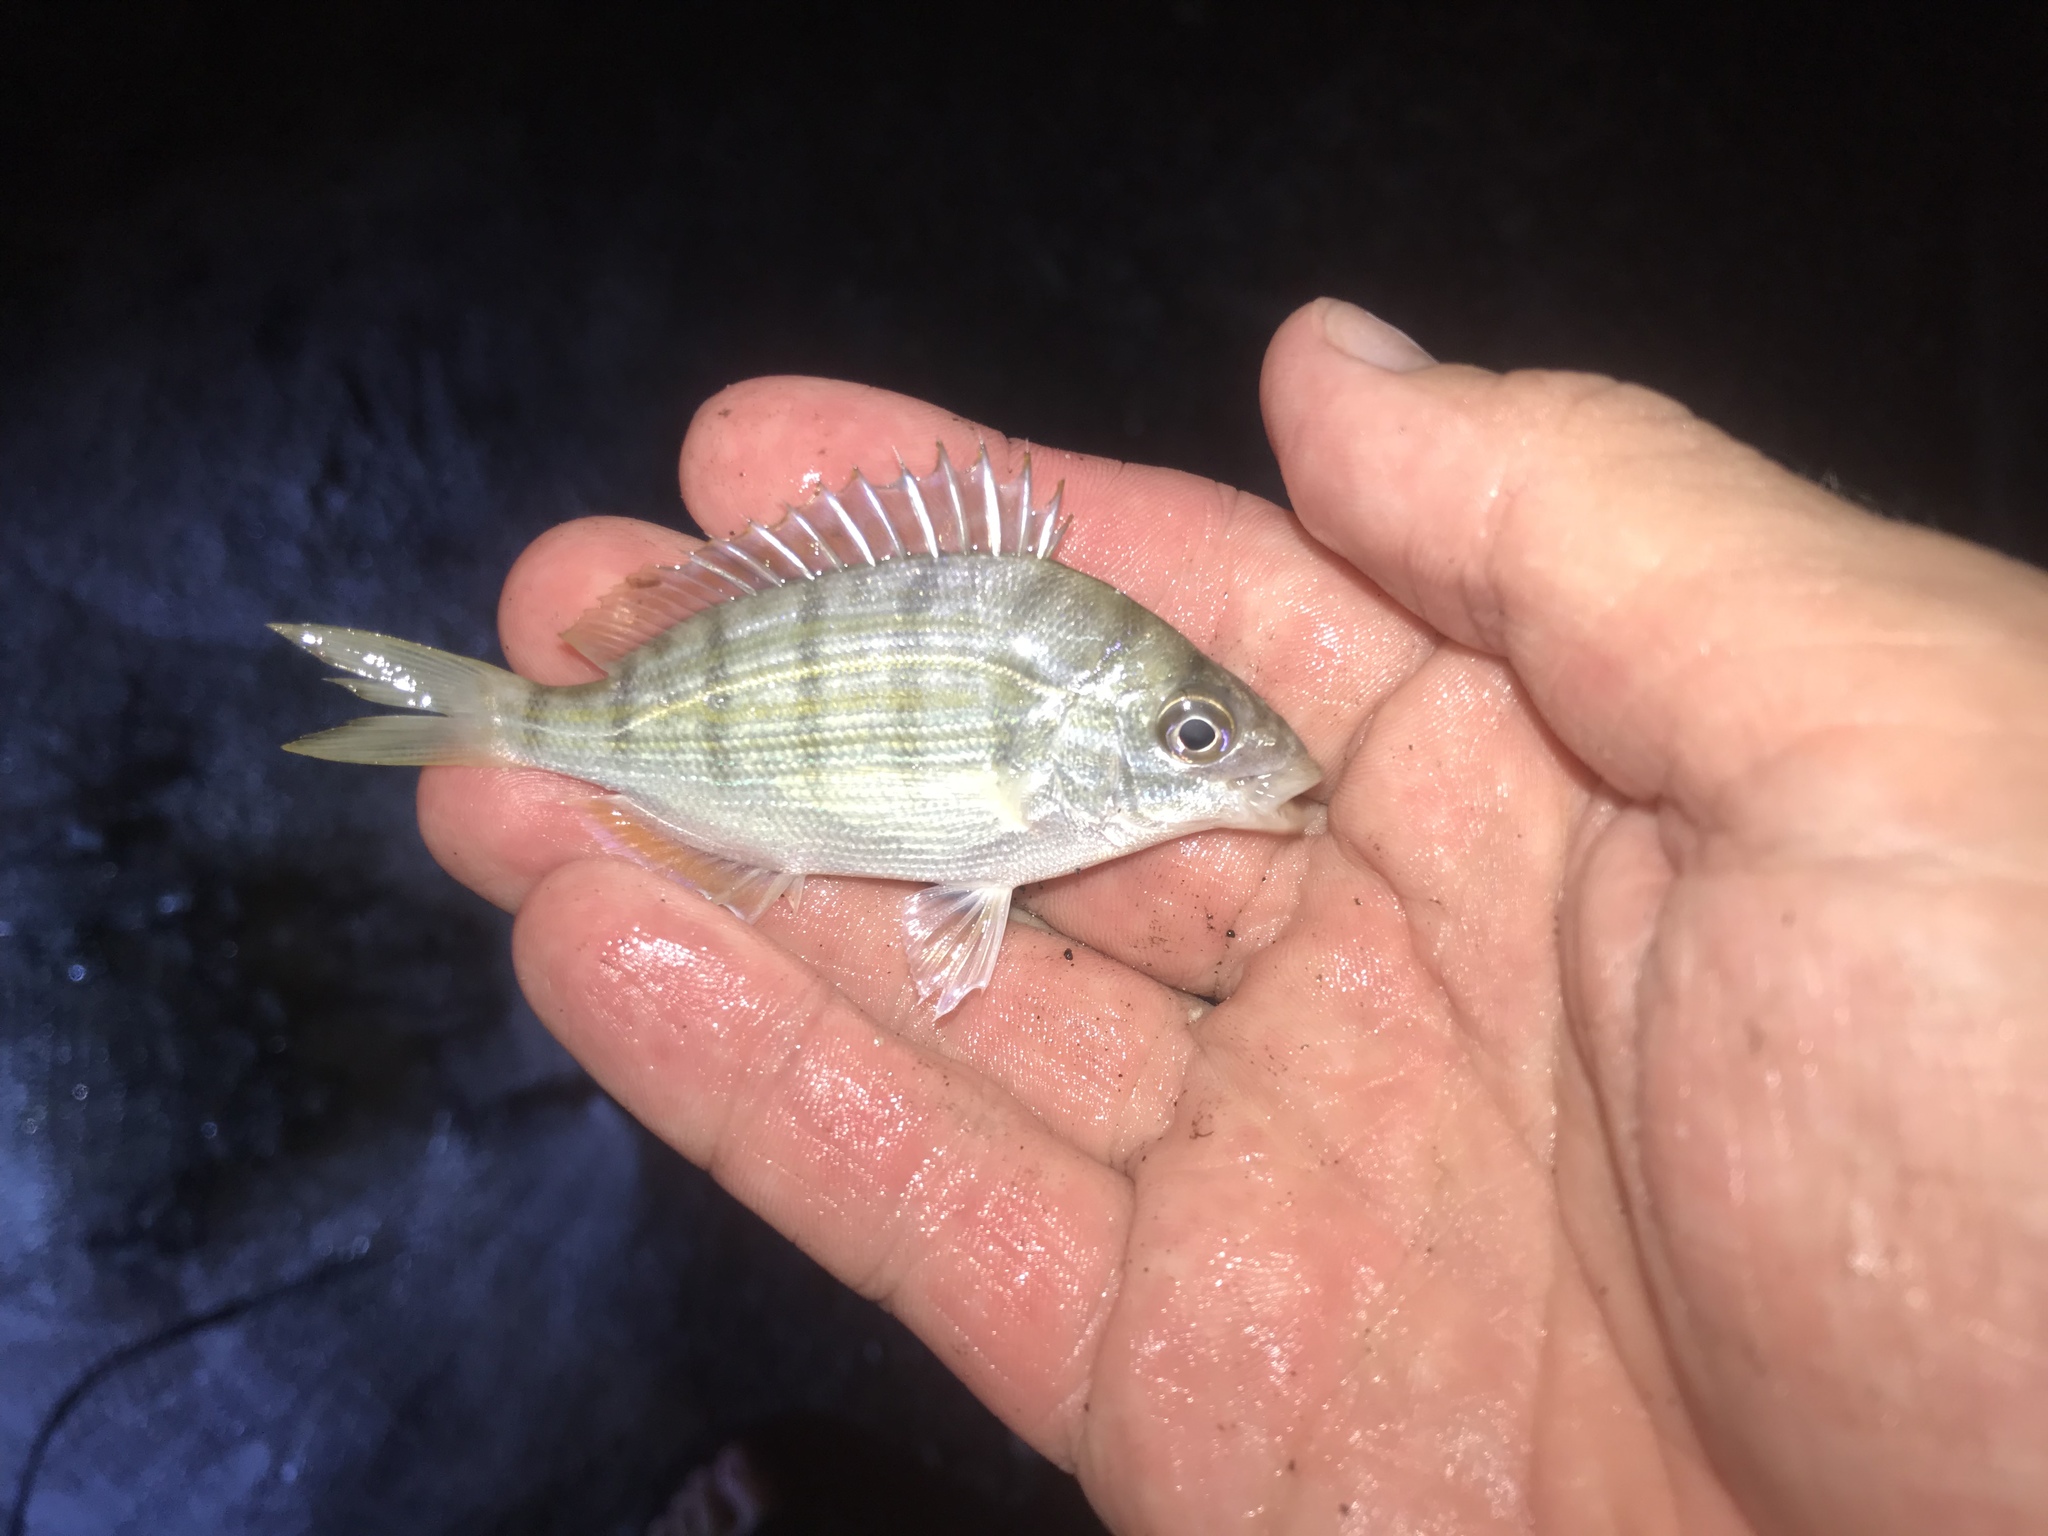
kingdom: Animalia
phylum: Chordata
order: Perciformes
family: Sparidae
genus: Lagodon
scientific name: Lagodon rhomboides
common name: Pinfish
